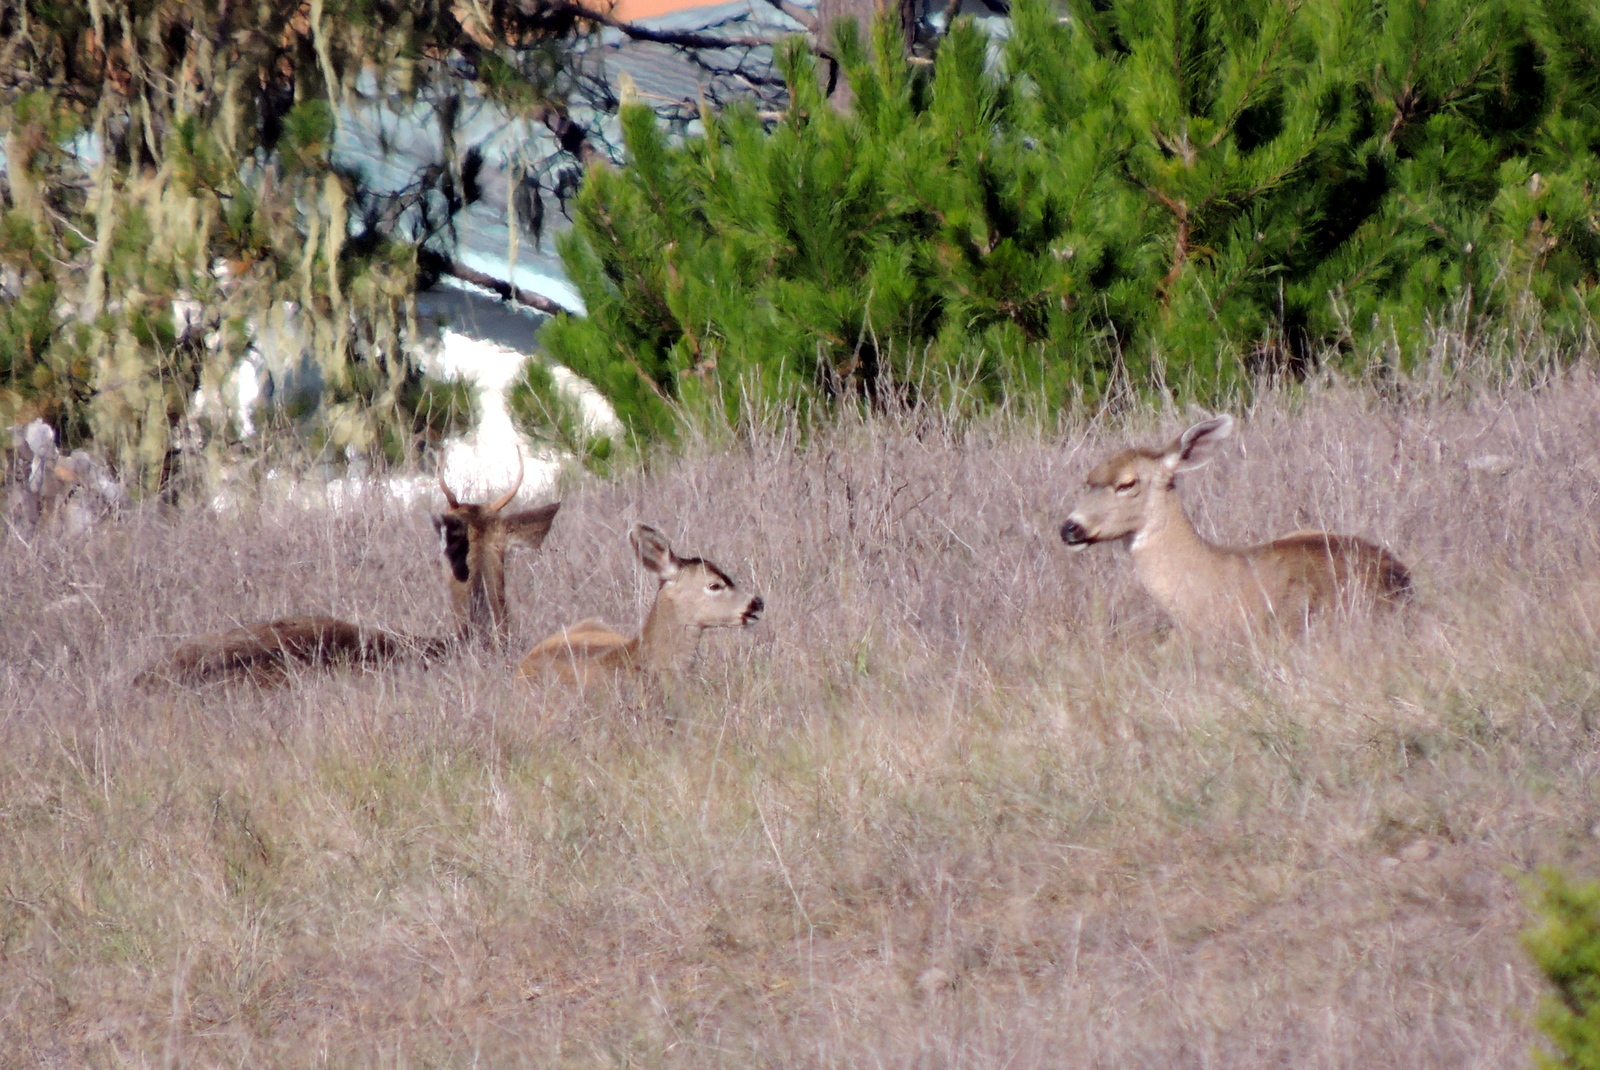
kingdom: Animalia
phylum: Chordata
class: Mammalia
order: Artiodactyla
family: Cervidae
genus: Odocoileus
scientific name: Odocoileus hemionus
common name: Mule deer
